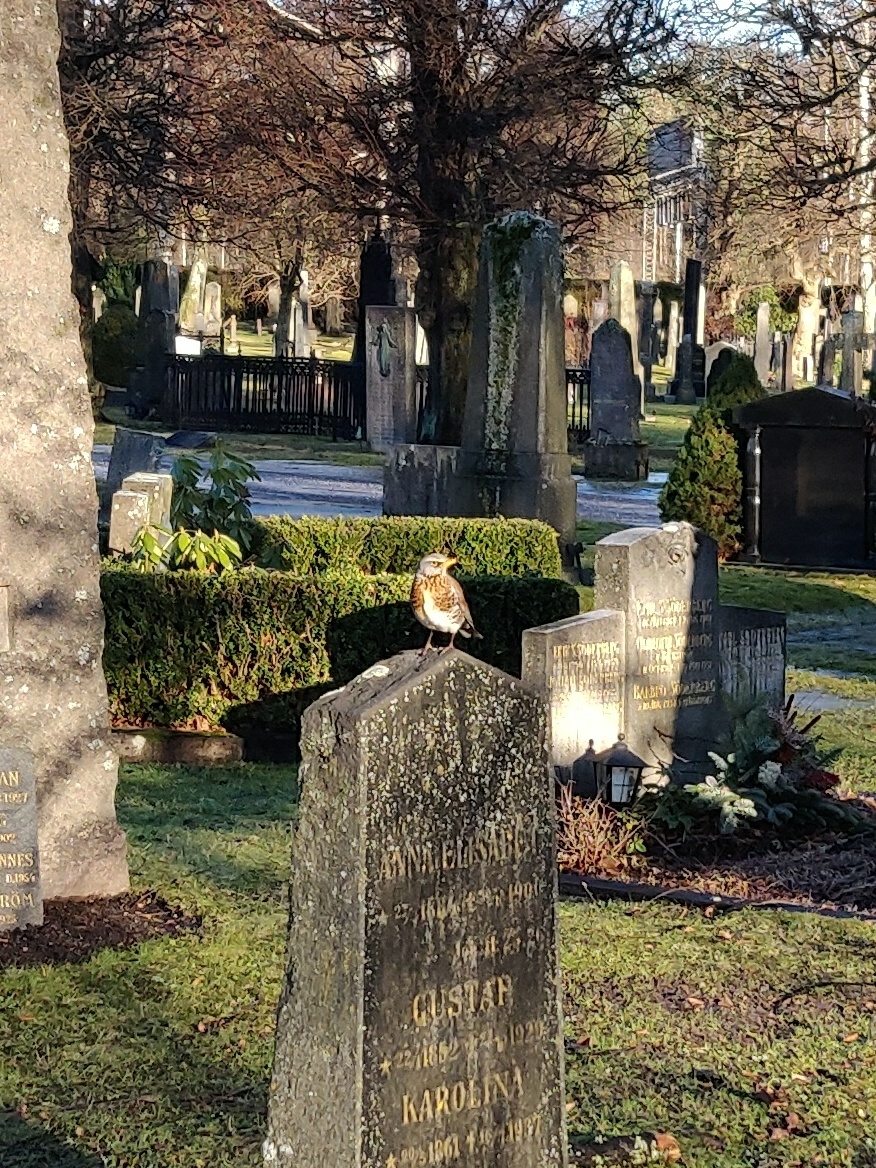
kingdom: Animalia
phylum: Chordata
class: Aves
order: Passeriformes
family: Turdidae
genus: Turdus
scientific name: Turdus pilaris
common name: Fieldfare
